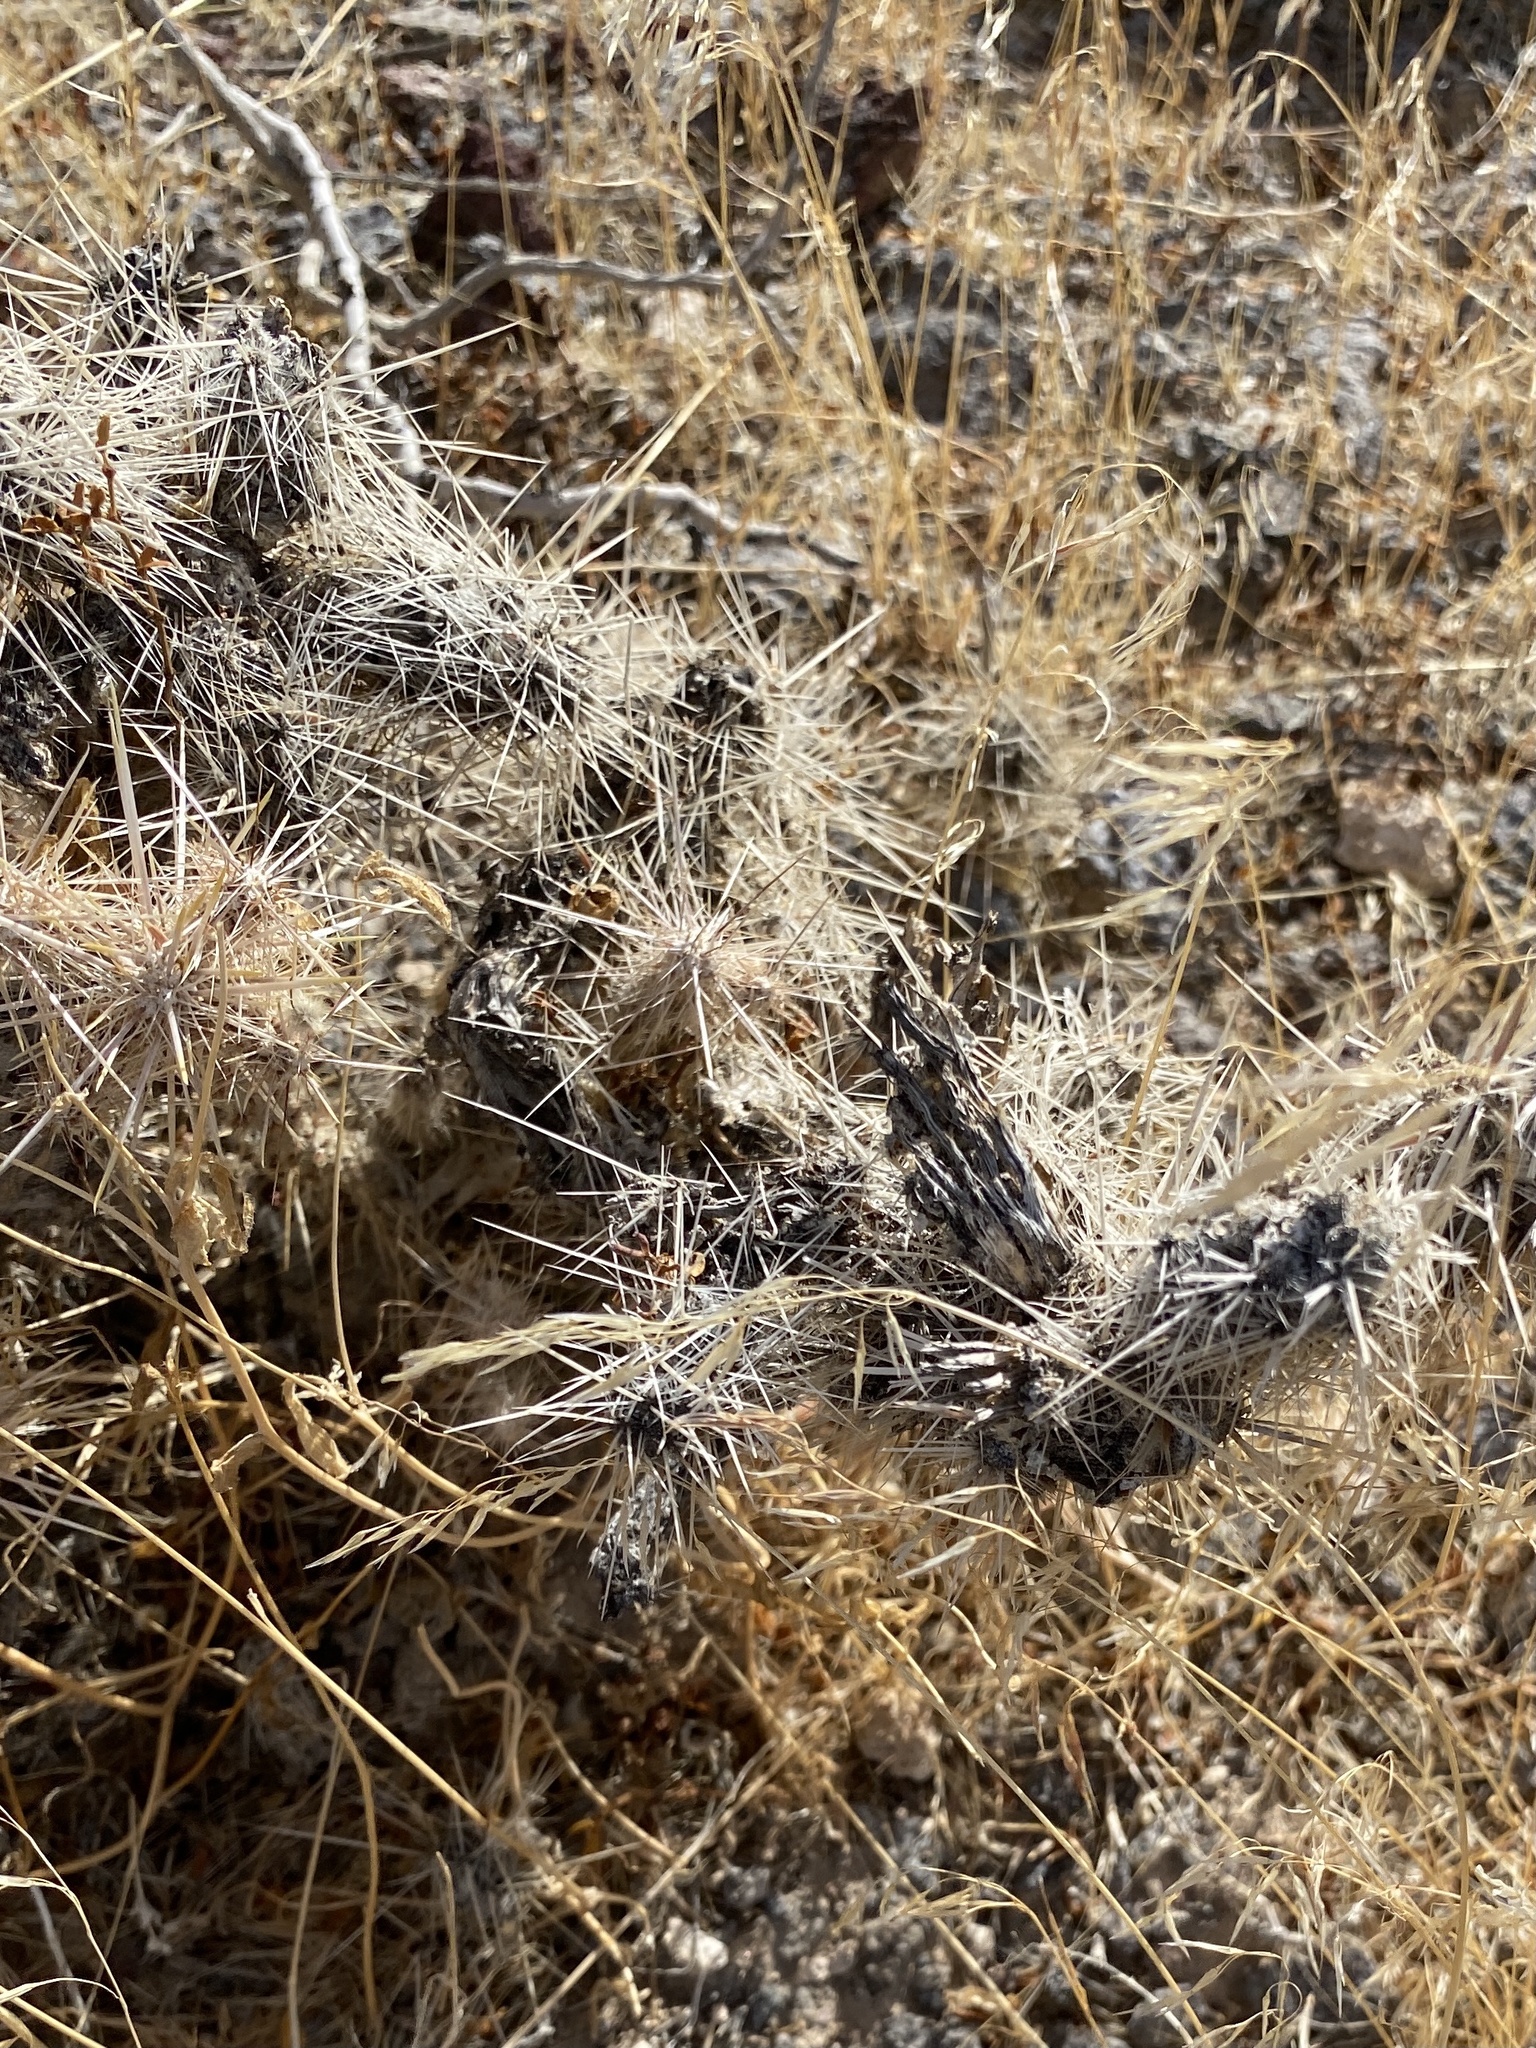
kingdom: Plantae
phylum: Tracheophyta
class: Magnoliopsida
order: Caryophyllales
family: Cactaceae
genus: Cylindropuntia
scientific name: Cylindropuntia echinocarpa
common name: Ground cholla
